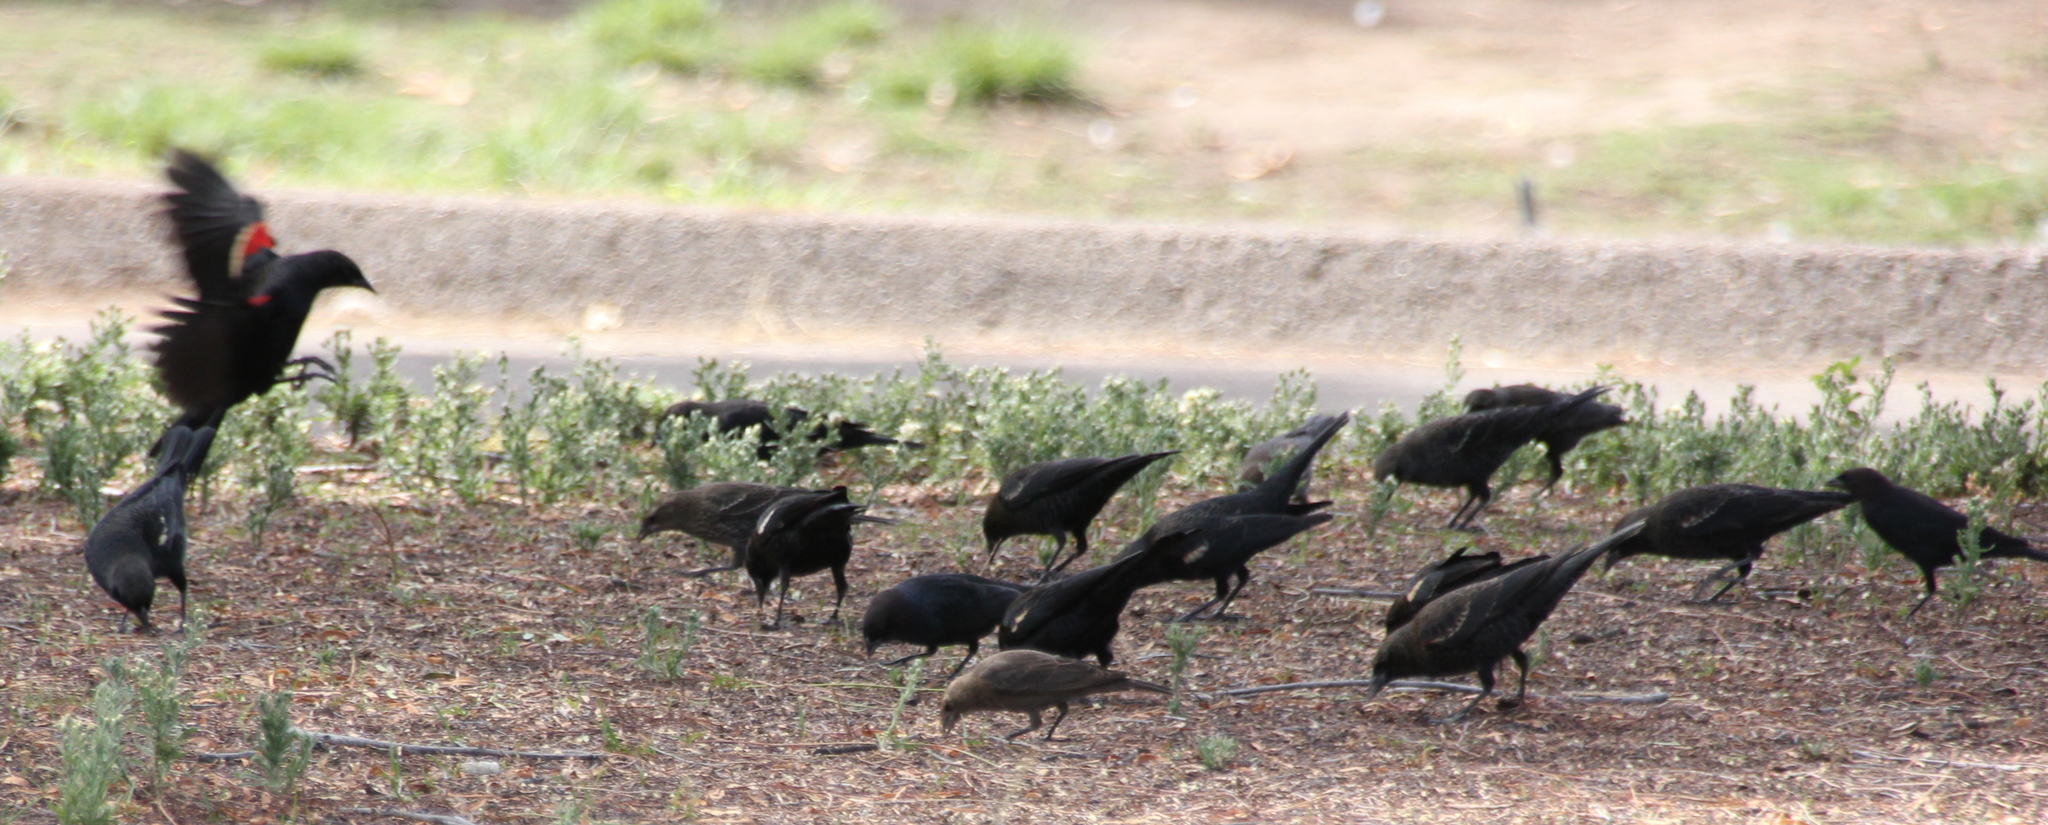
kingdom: Animalia
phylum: Chordata
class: Aves
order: Passeriformes
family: Icteridae
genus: Agelaius
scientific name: Agelaius phoeniceus
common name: Red-winged blackbird
